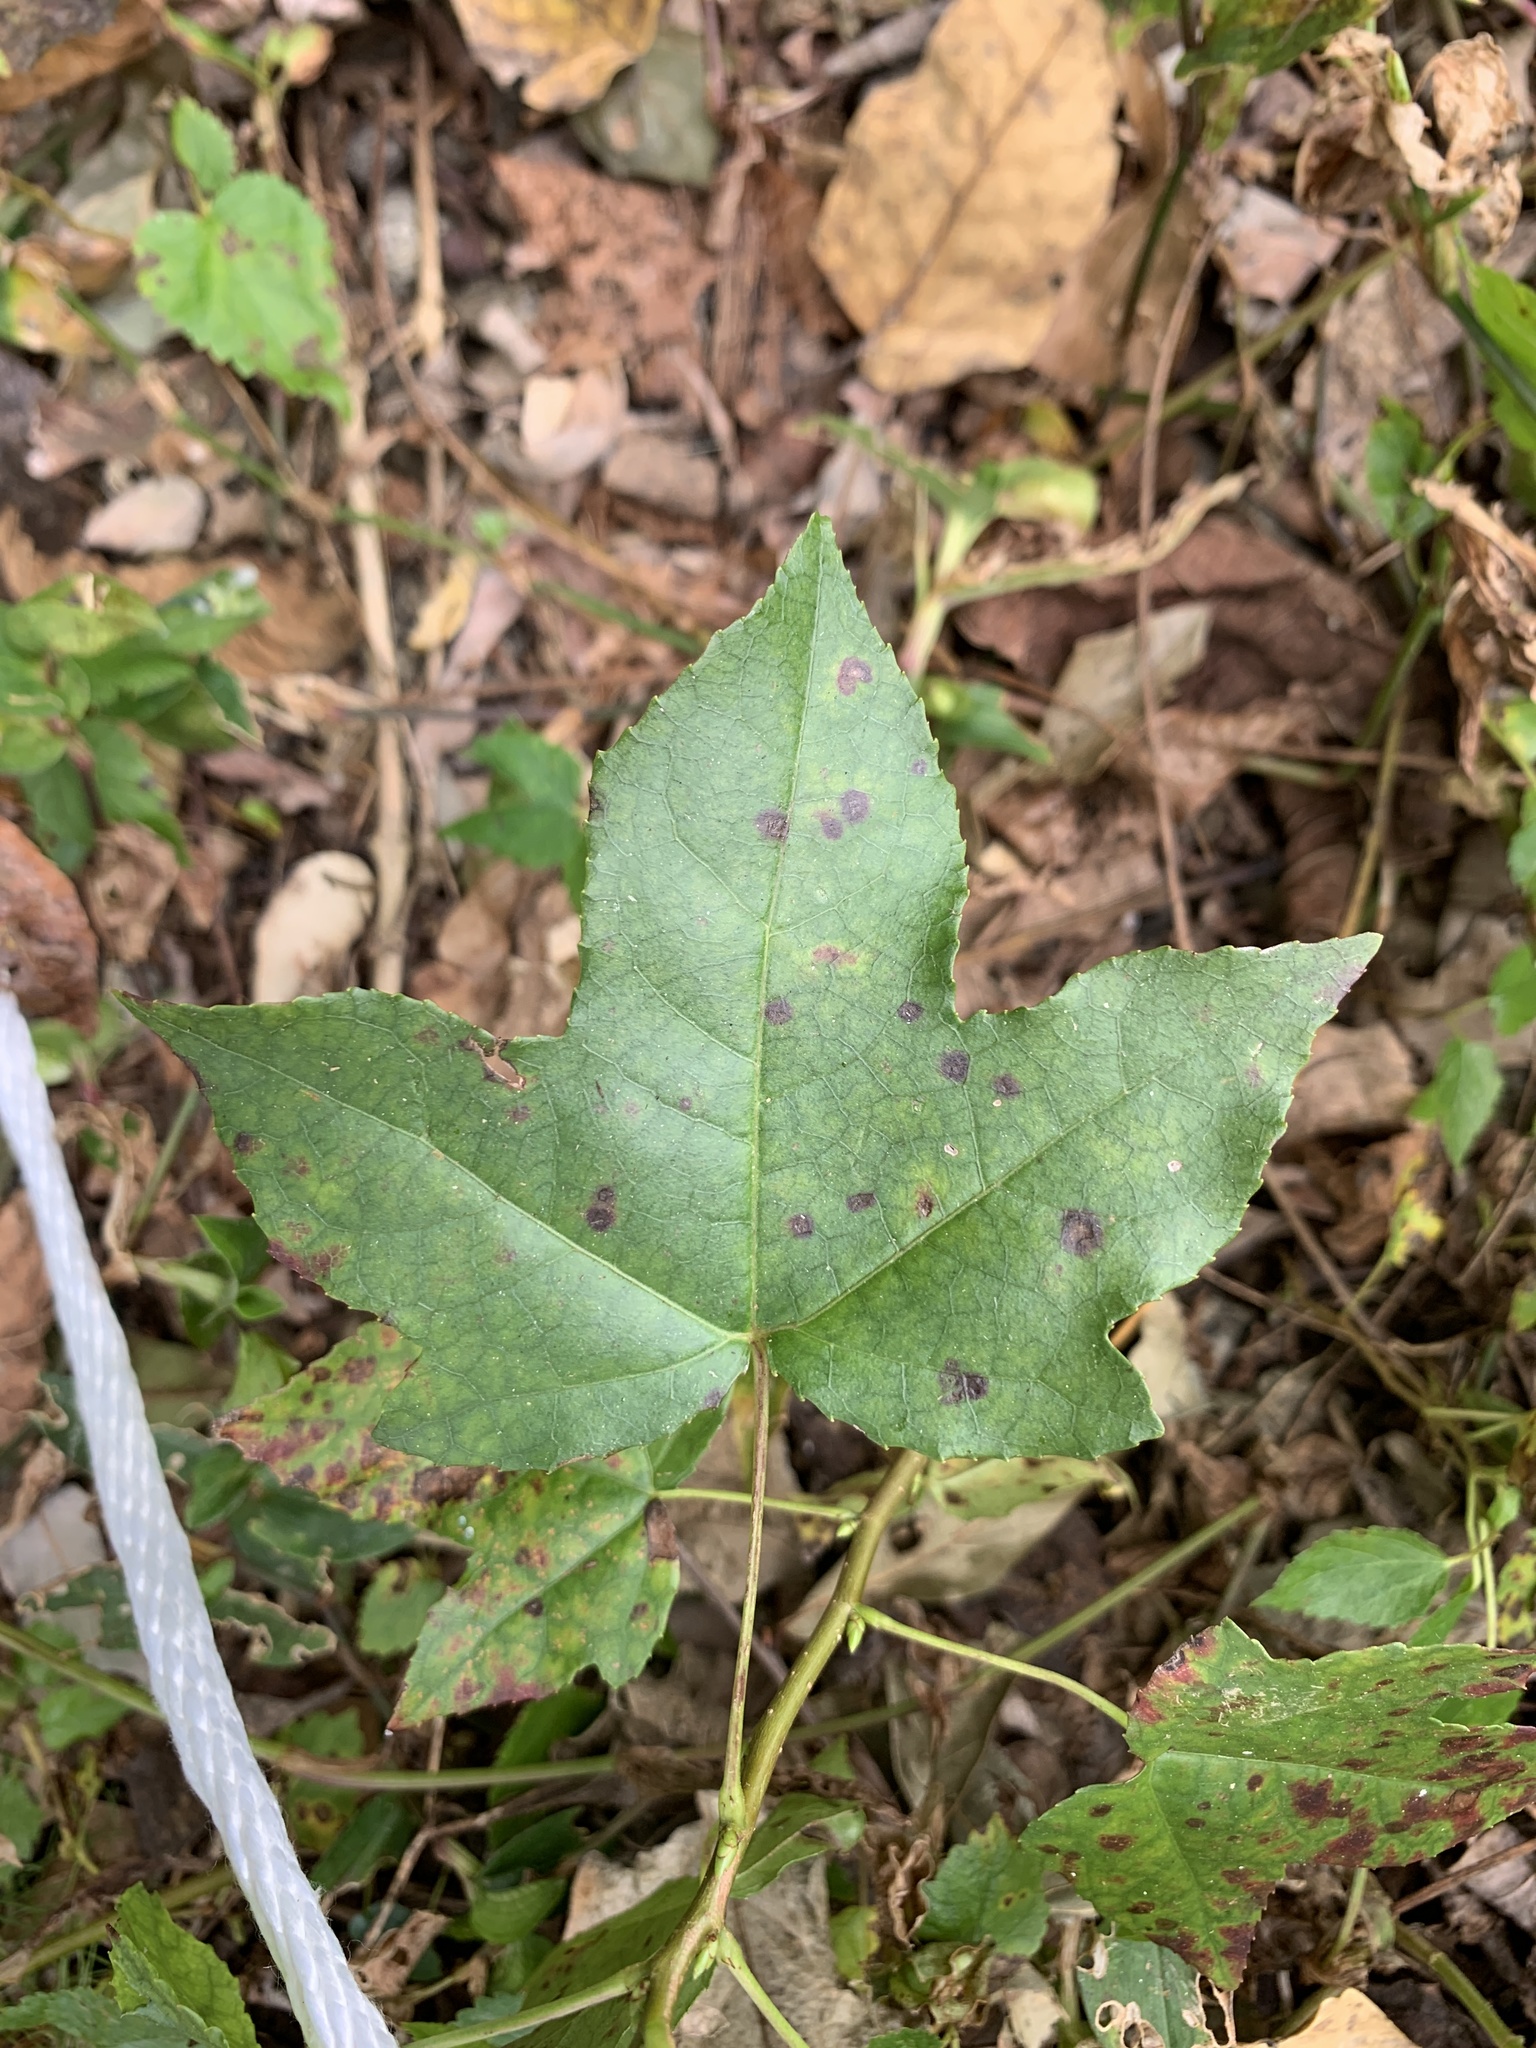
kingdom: Plantae
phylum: Tracheophyta
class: Magnoliopsida
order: Saxifragales
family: Altingiaceae
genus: Liquidambar
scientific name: Liquidambar styraciflua
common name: Sweet gum
